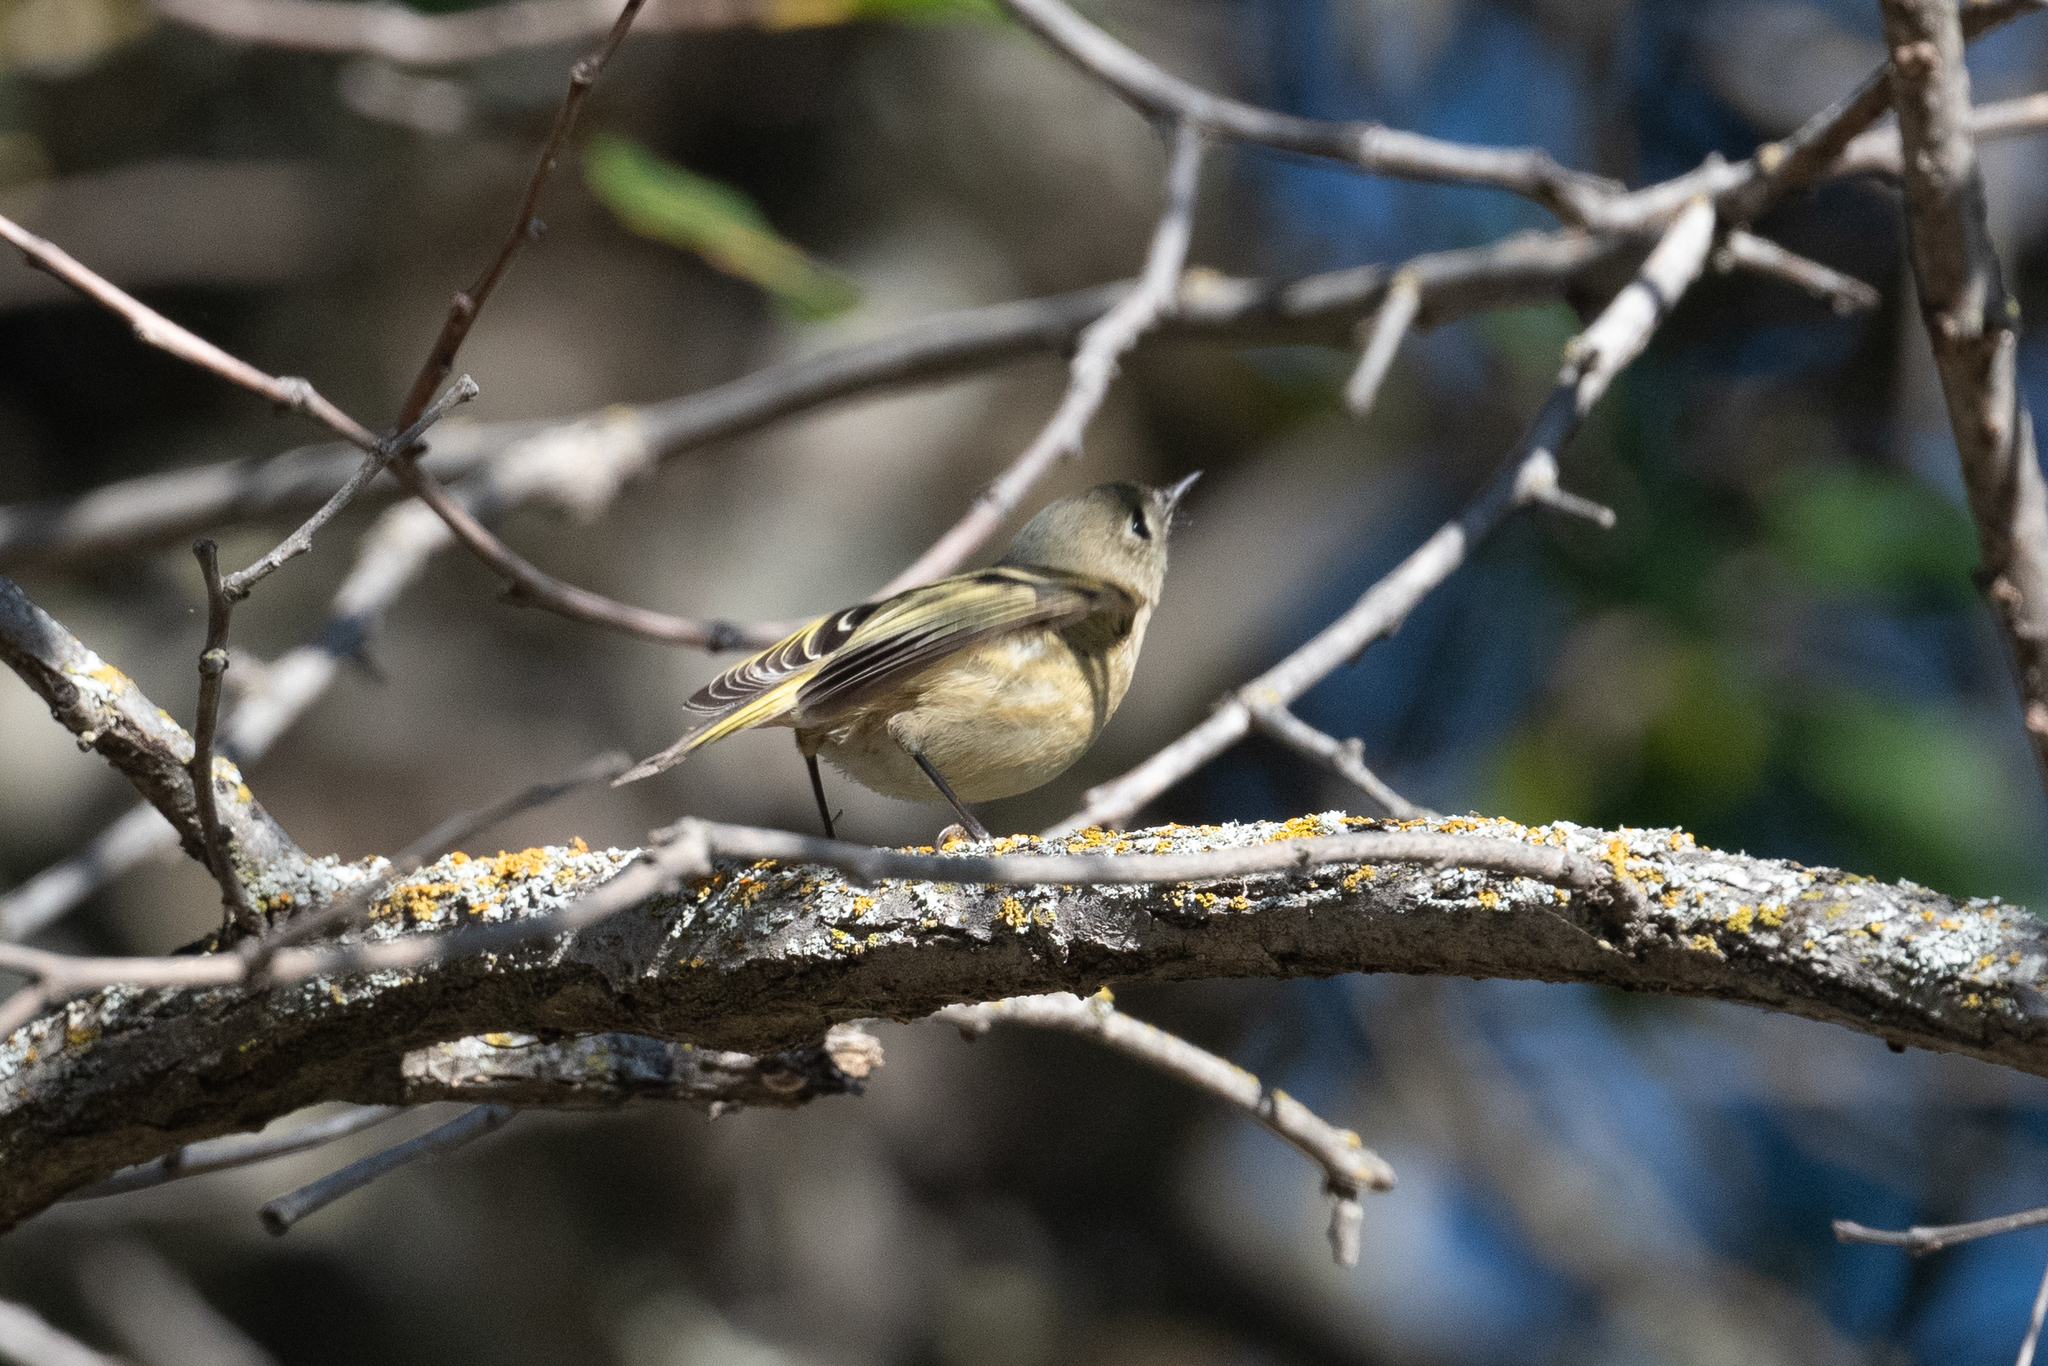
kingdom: Animalia
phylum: Chordata
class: Aves
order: Passeriformes
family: Regulidae
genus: Regulus
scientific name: Regulus calendula
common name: Ruby-crowned kinglet
